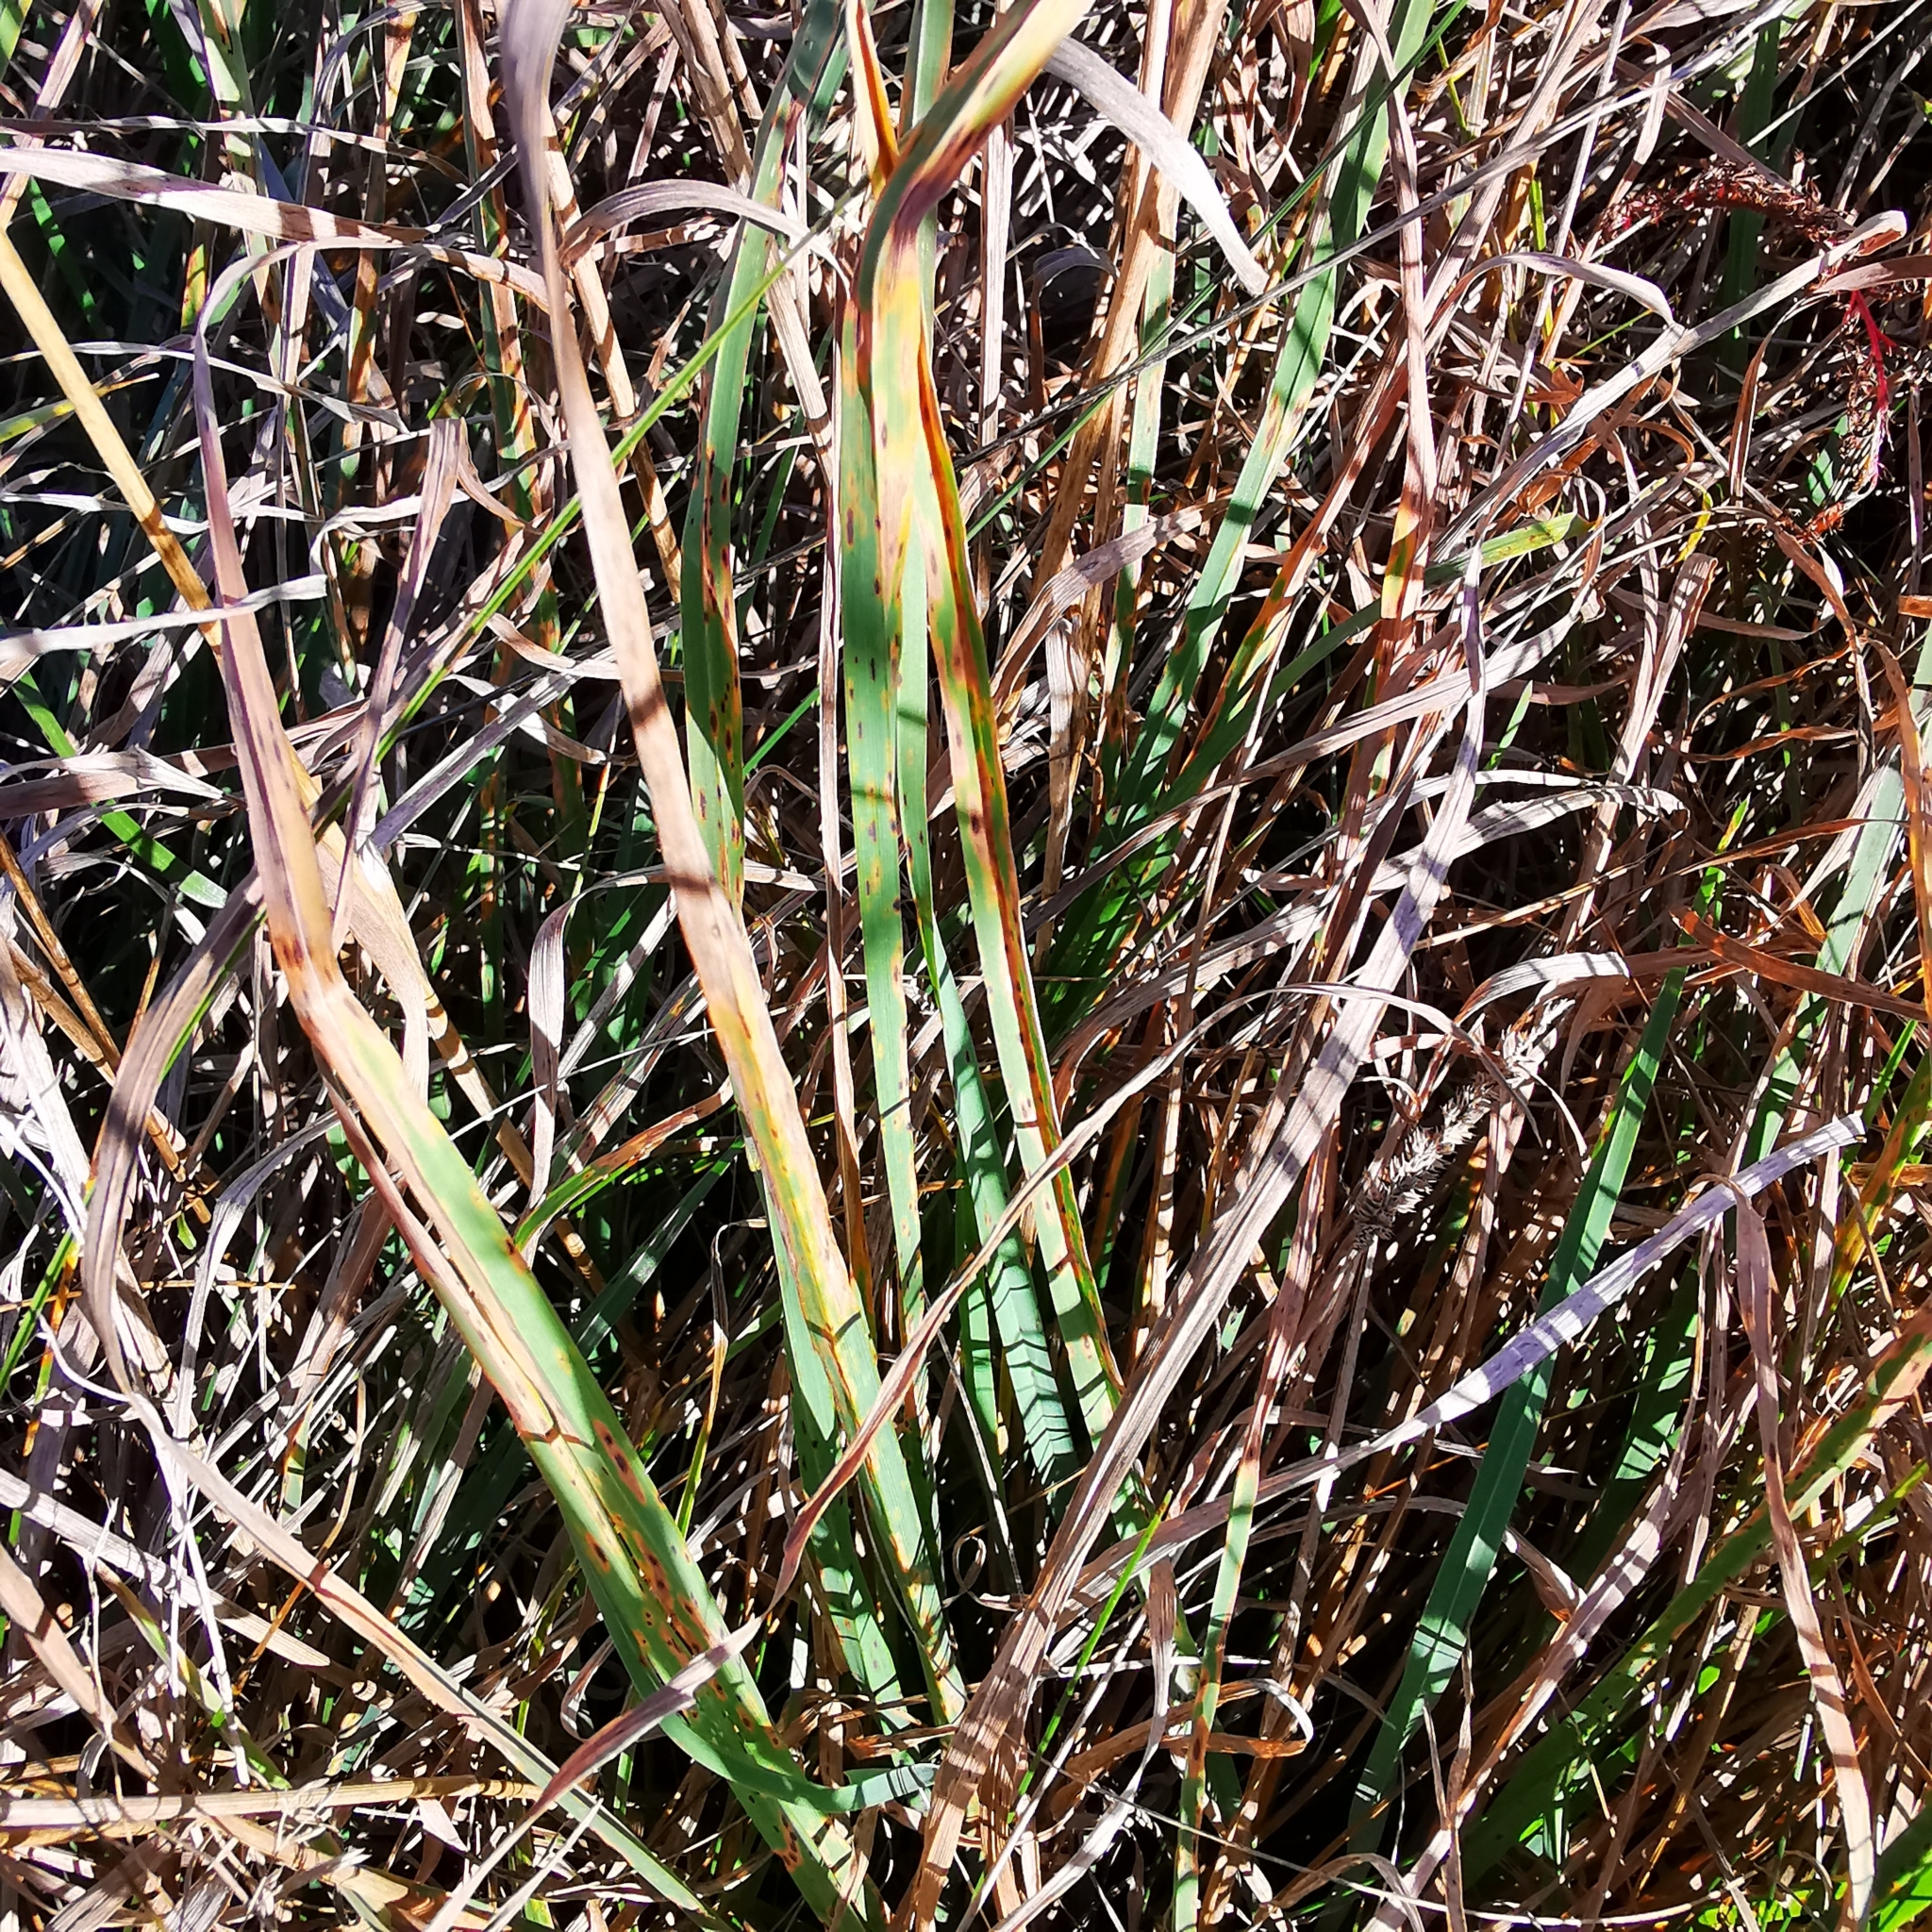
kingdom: Plantae
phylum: Tracheophyta
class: Liliopsida
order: Poales
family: Poaceae
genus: Dactylis
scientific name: Dactylis glomerata
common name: Orchardgrass
